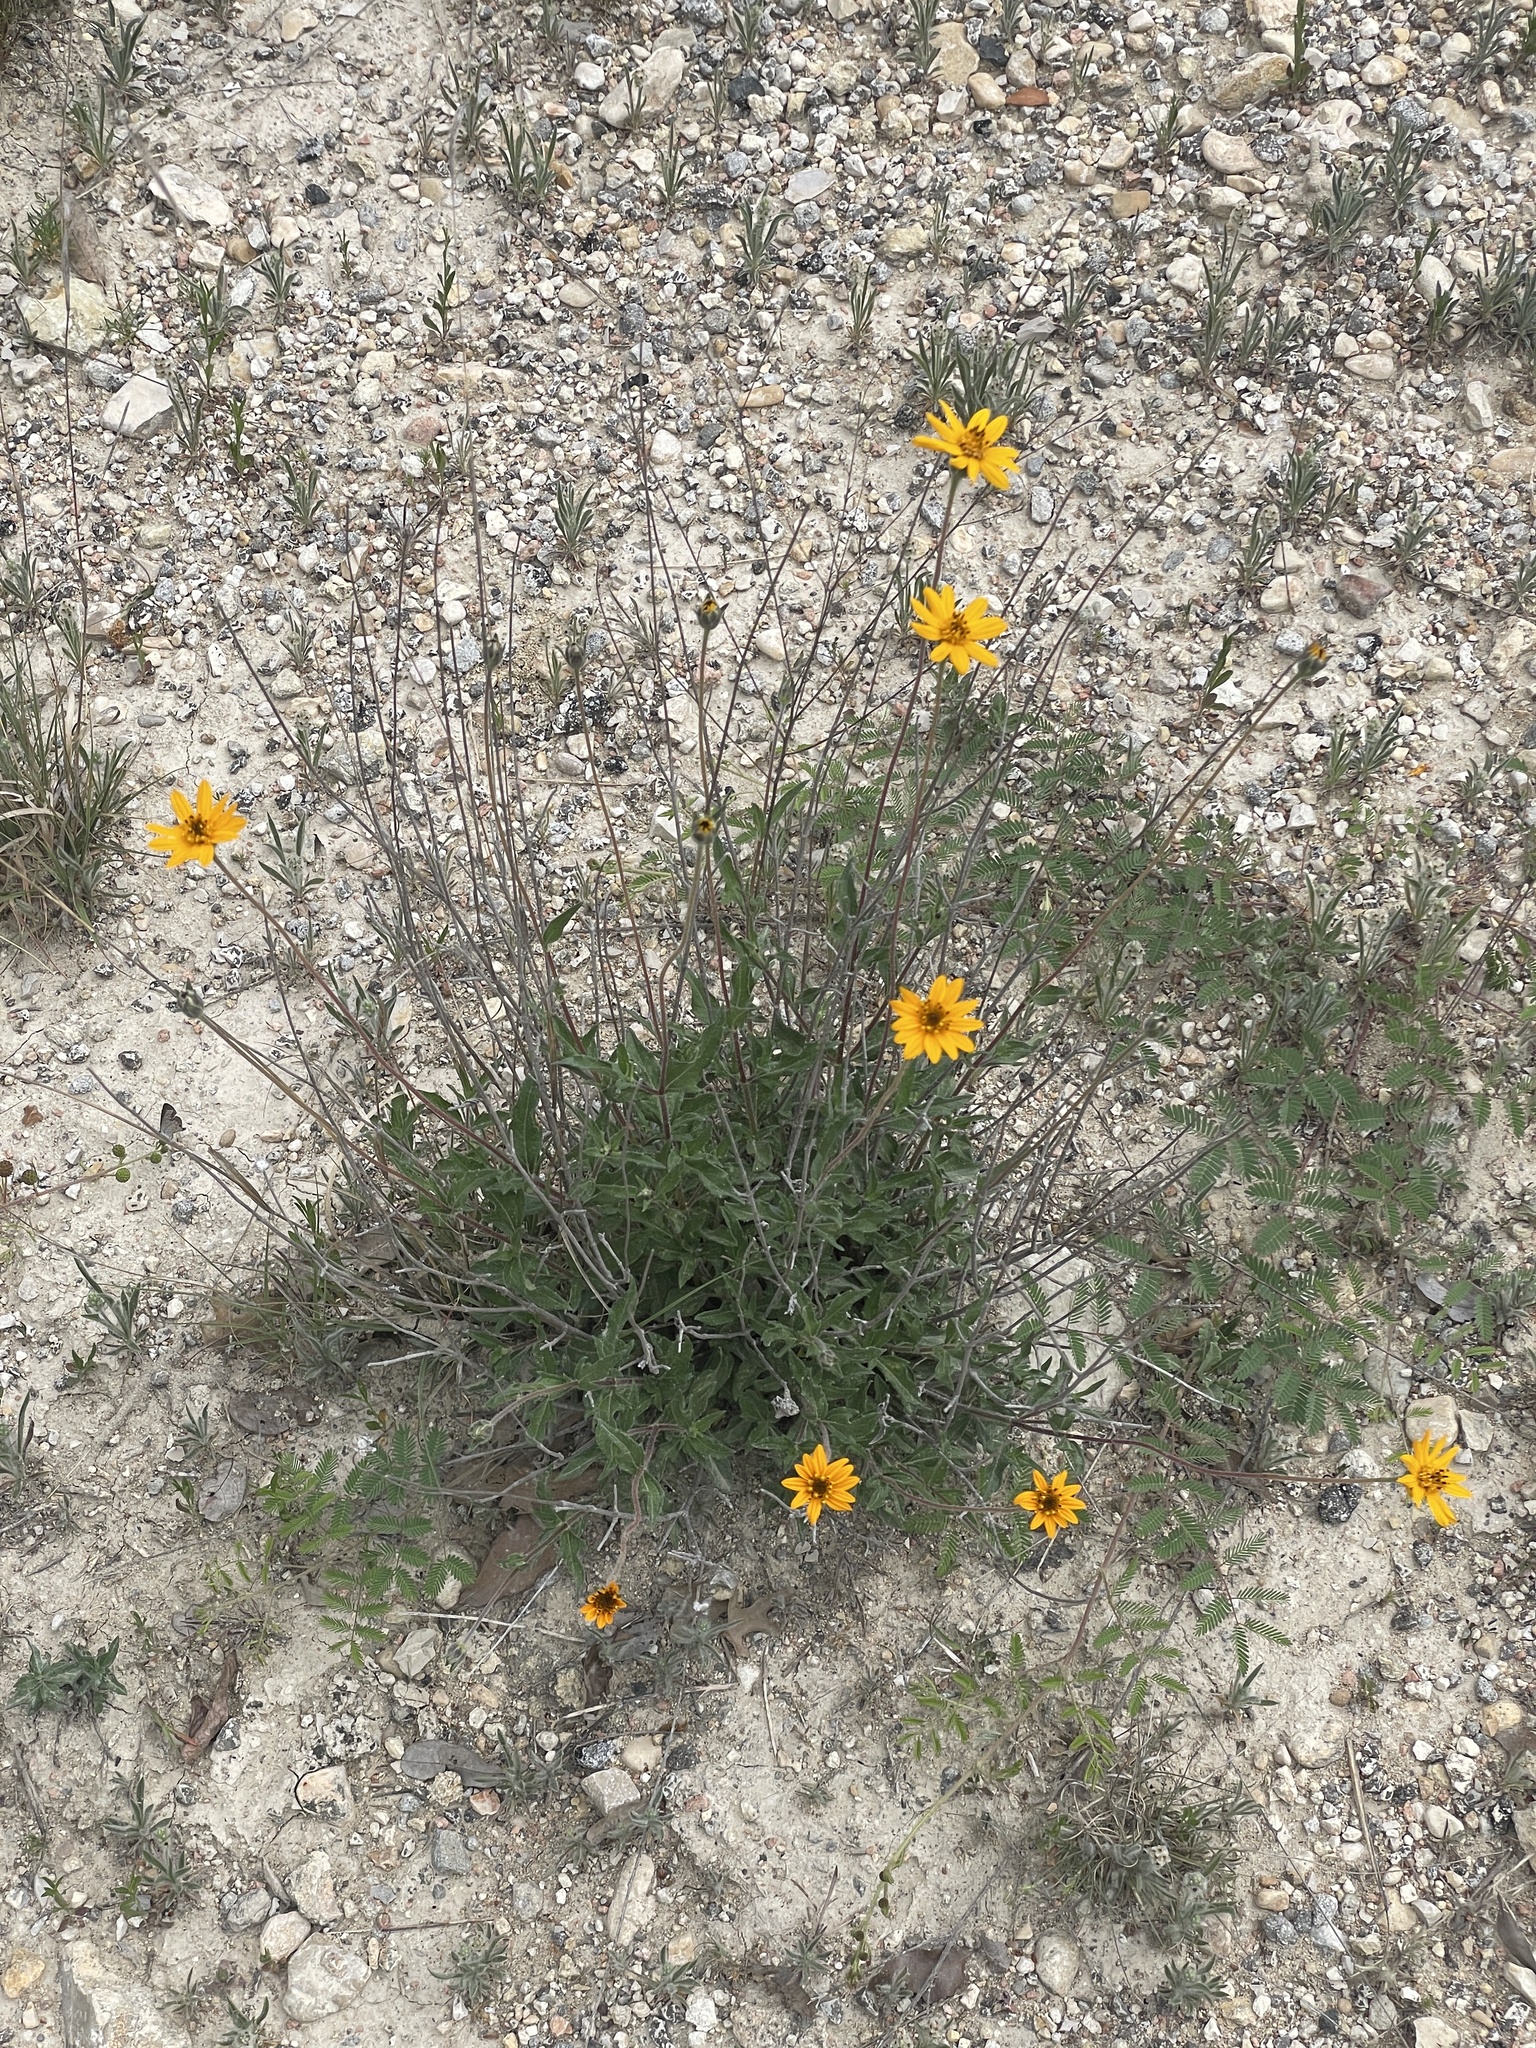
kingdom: Plantae
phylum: Tracheophyta
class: Magnoliopsida
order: Asterales
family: Asteraceae
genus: Wedelia
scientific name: Wedelia acapulcensis
